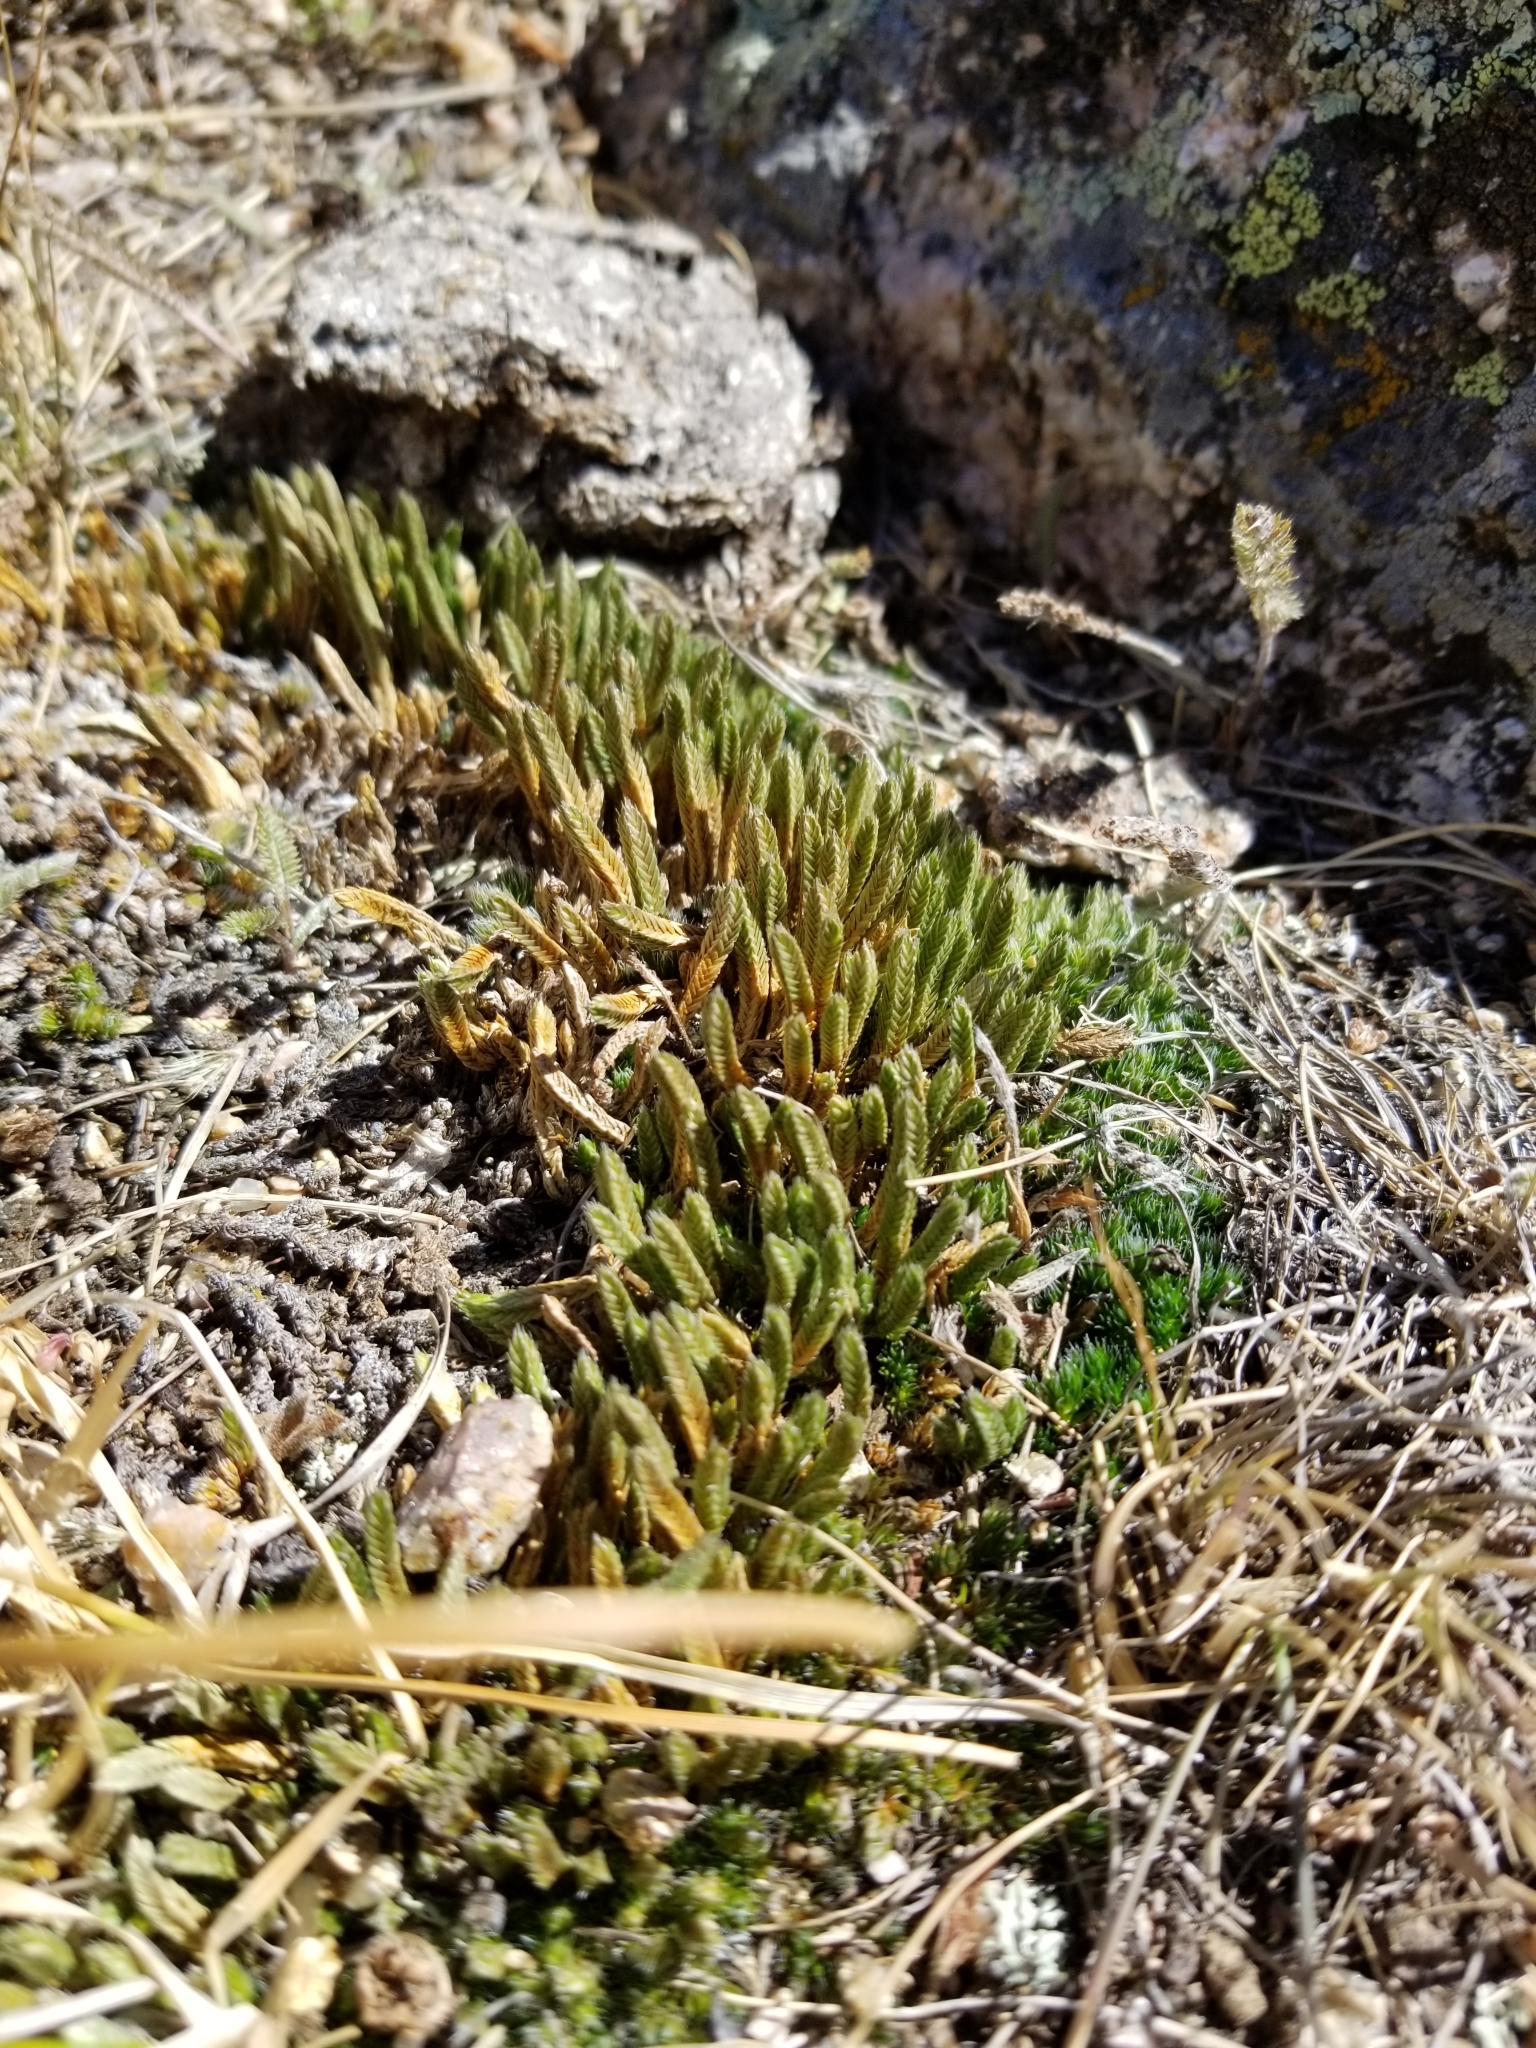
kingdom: Plantae
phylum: Tracheophyta
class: Lycopodiopsida
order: Selaginellales
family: Selaginellaceae
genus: Selaginella
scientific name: Selaginella densa
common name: Mountain spike-moss
